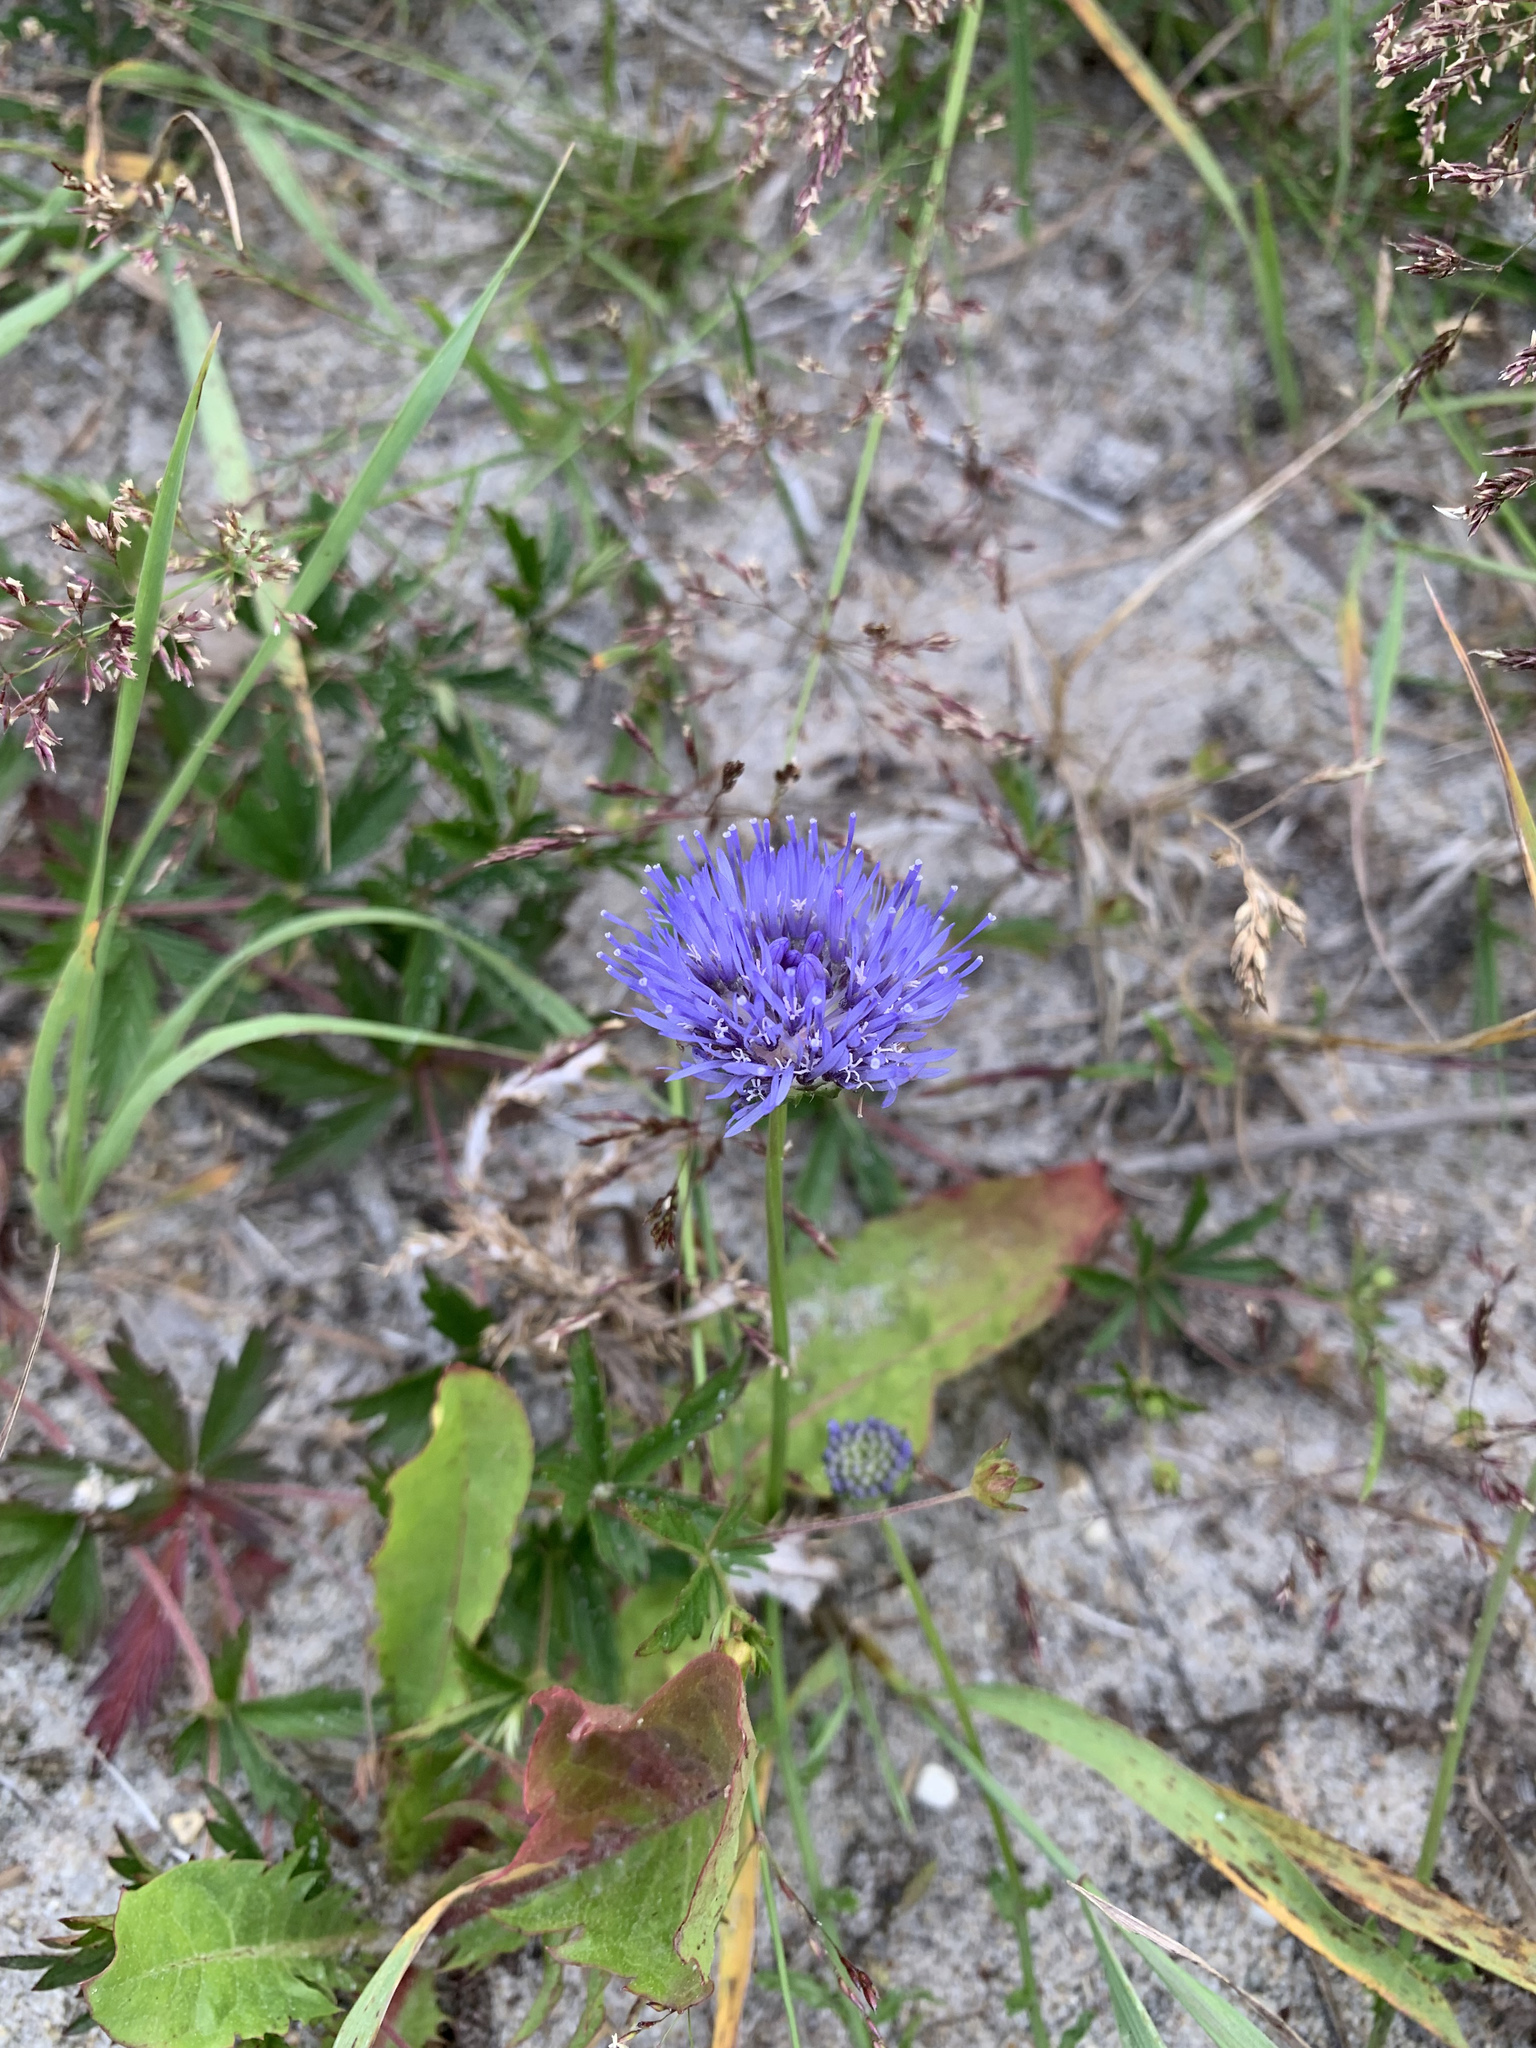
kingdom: Plantae
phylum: Tracheophyta
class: Magnoliopsida
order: Asterales
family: Campanulaceae
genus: Jasione
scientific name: Jasione montana
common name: Sheep's-bit
